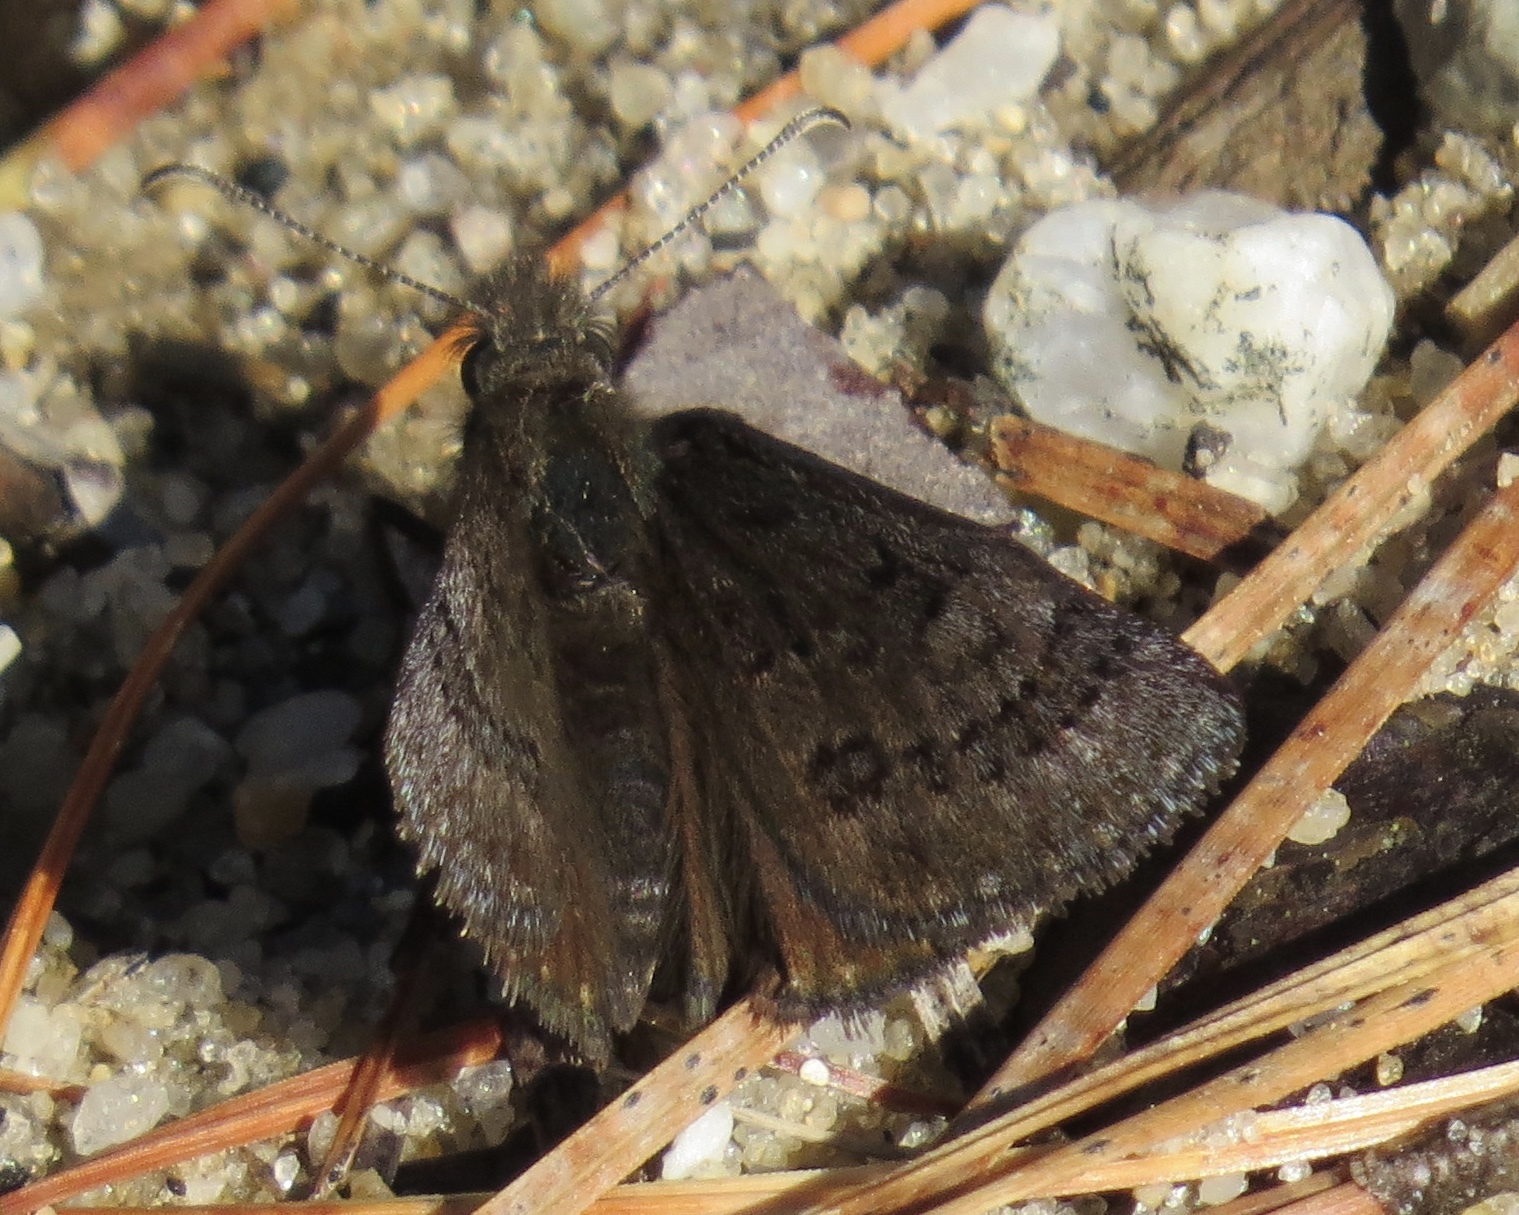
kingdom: Animalia
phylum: Arthropoda
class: Insecta
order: Lepidoptera
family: Hesperiidae
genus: Erynnis
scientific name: Erynnis brizo
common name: Sleepy duskywing
